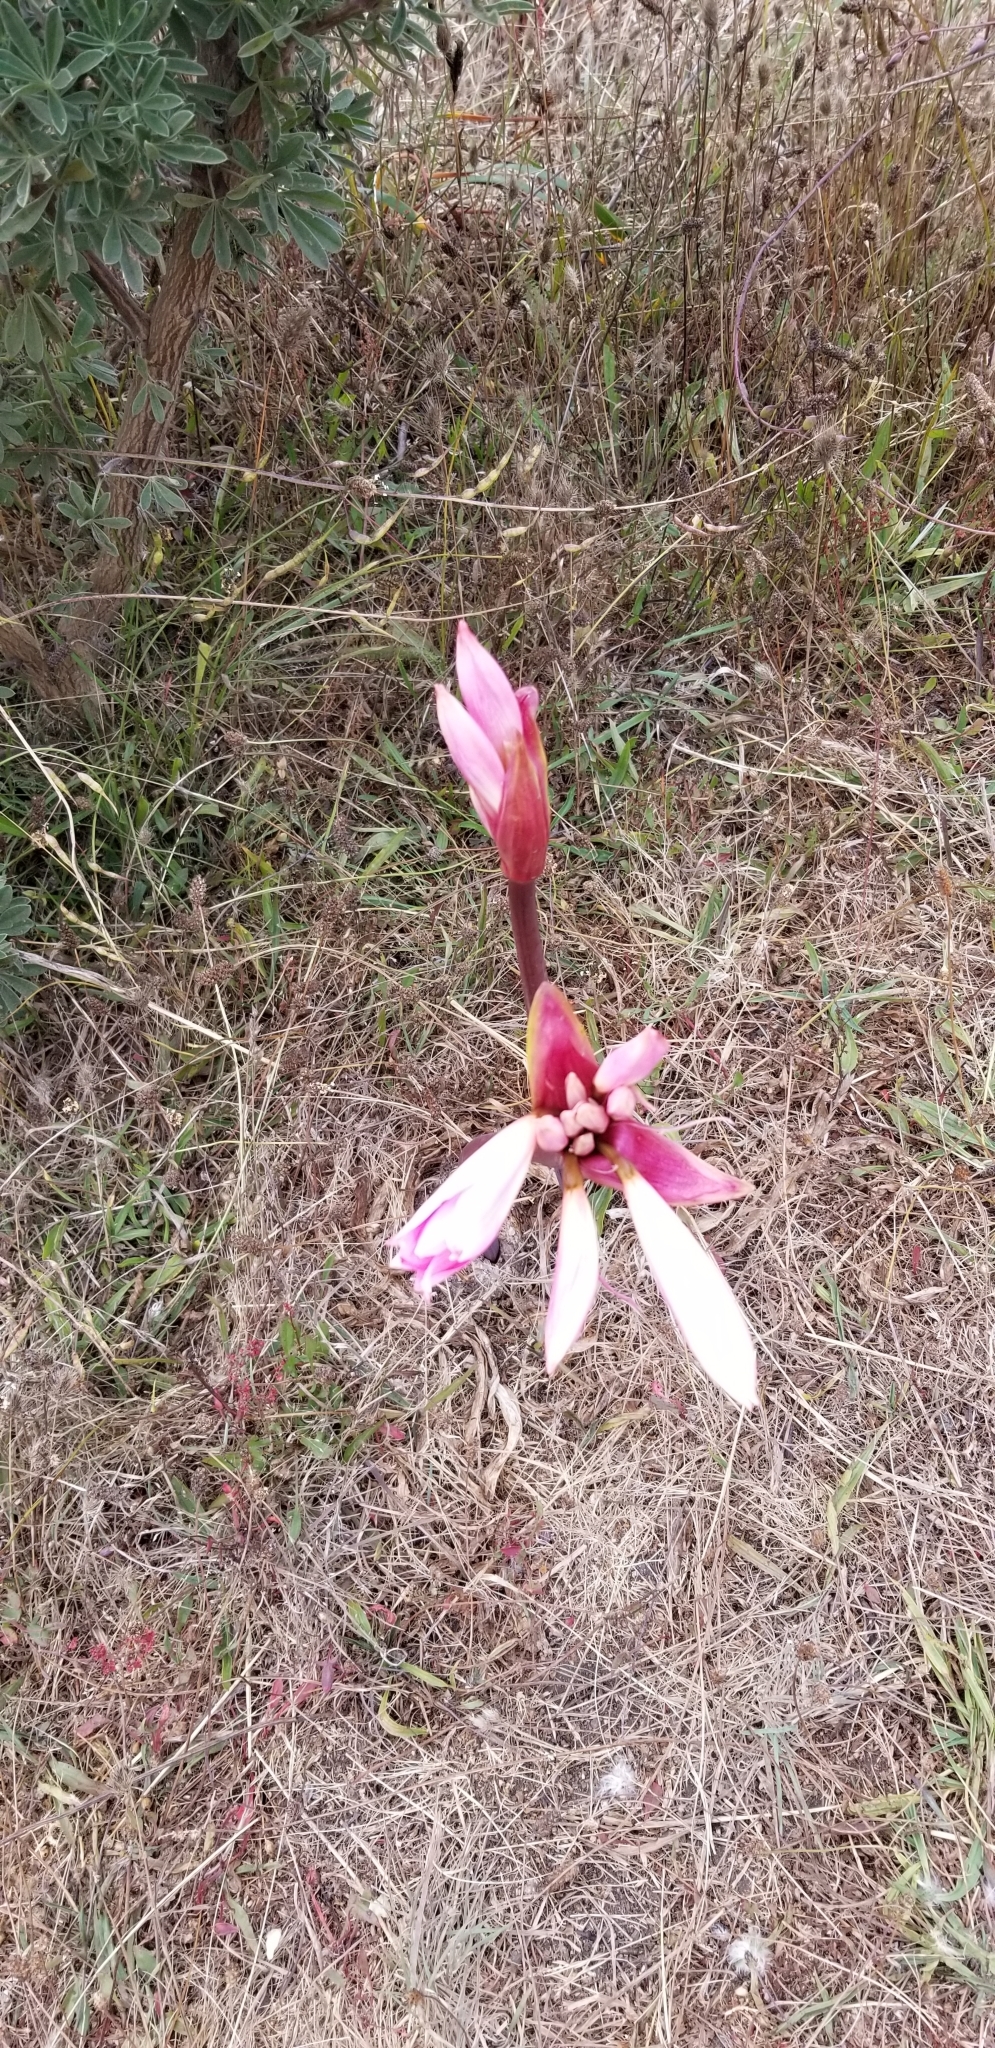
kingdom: Plantae
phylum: Tracheophyta
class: Liliopsida
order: Asparagales
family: Amaryllidaceae
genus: Amaryllis
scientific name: Amaryllis belladonna
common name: Jersey lily
